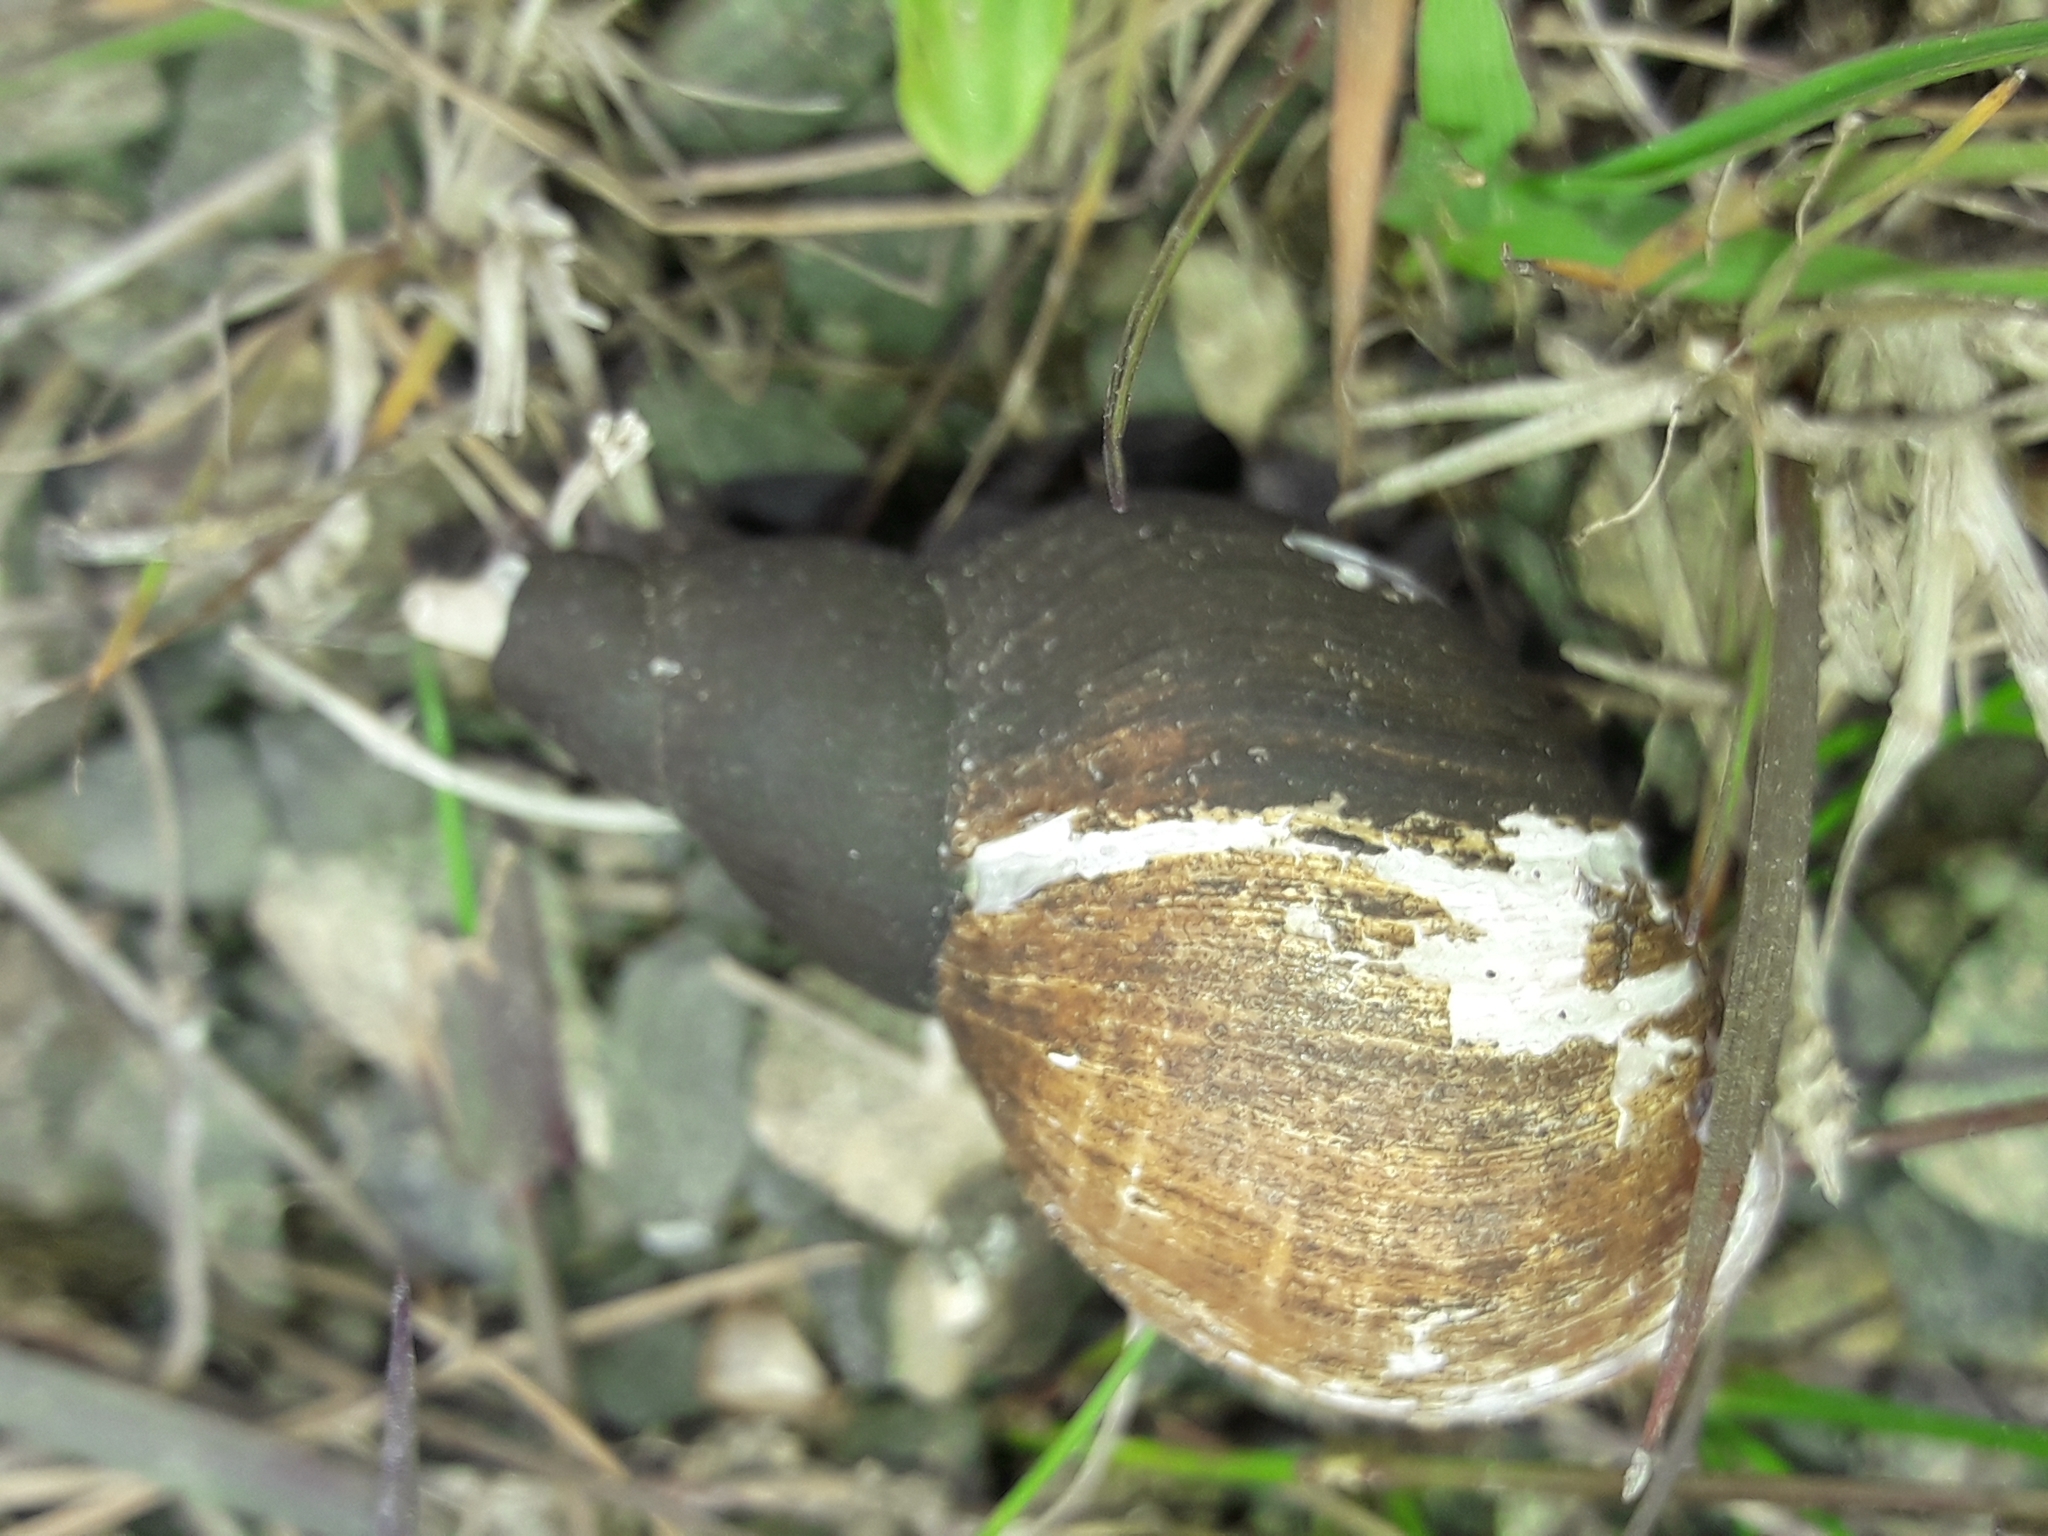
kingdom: Animalia
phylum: Mollusca
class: Gastropoda
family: Lymnaeidae
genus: Lymnaea
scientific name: Lymnaea stagnalis
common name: Great pond snail
